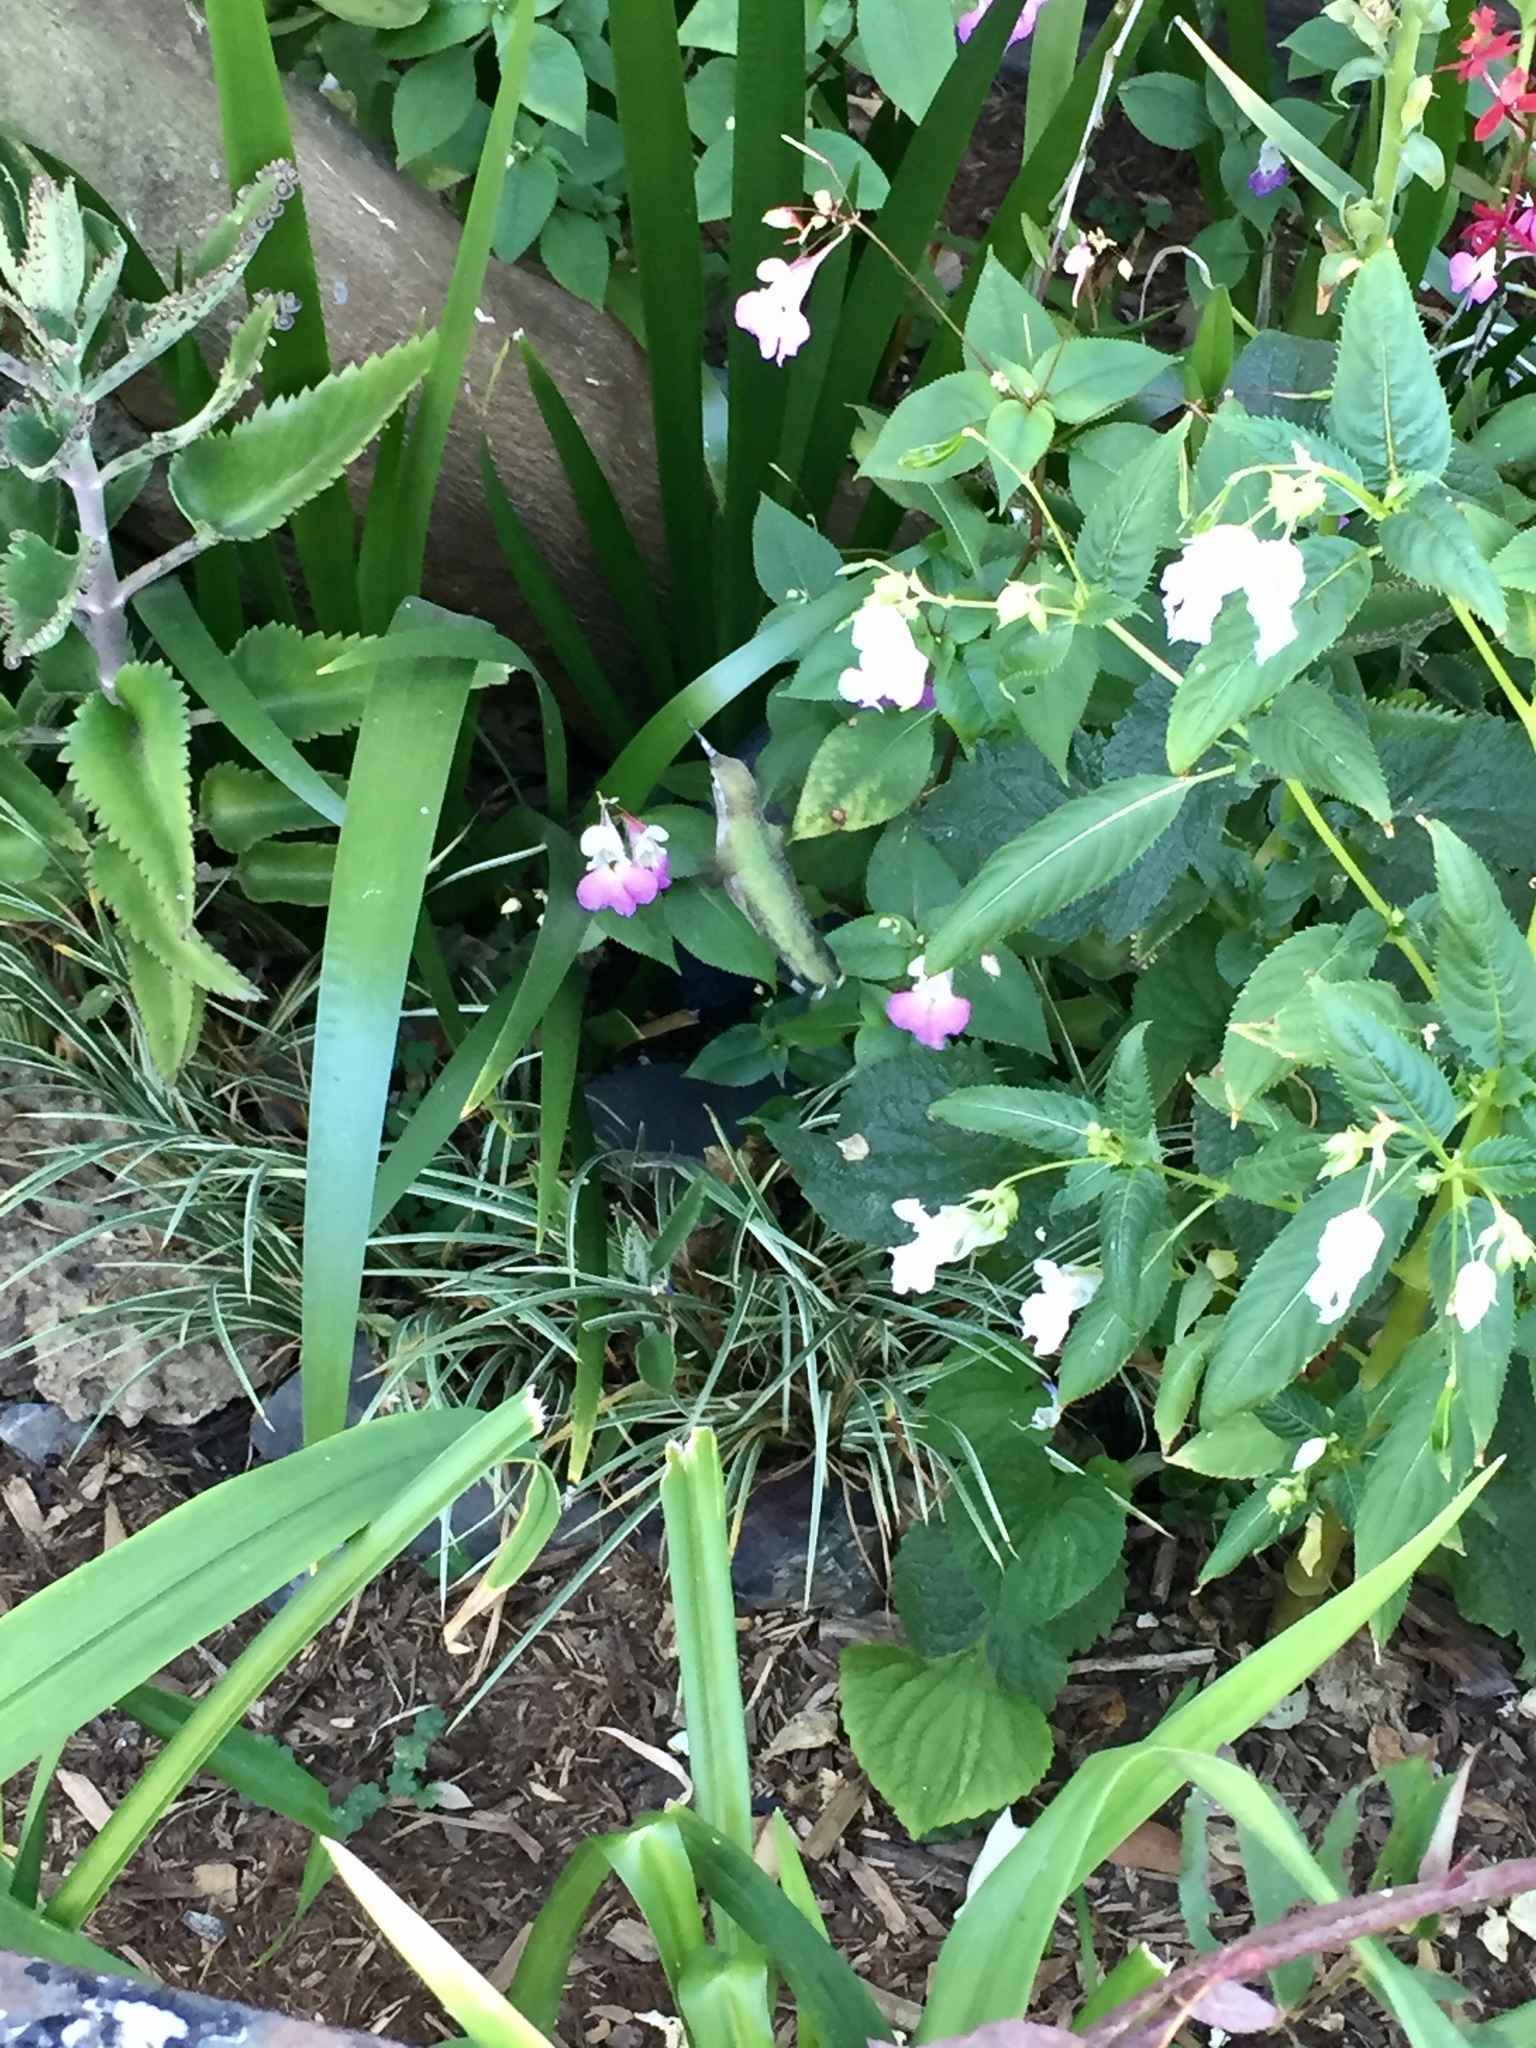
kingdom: Animalia
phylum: Chordata
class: Aves
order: Apodiformes
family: Trochilidae
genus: Calypte
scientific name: Calypte anna
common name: Anna's hummingbird
